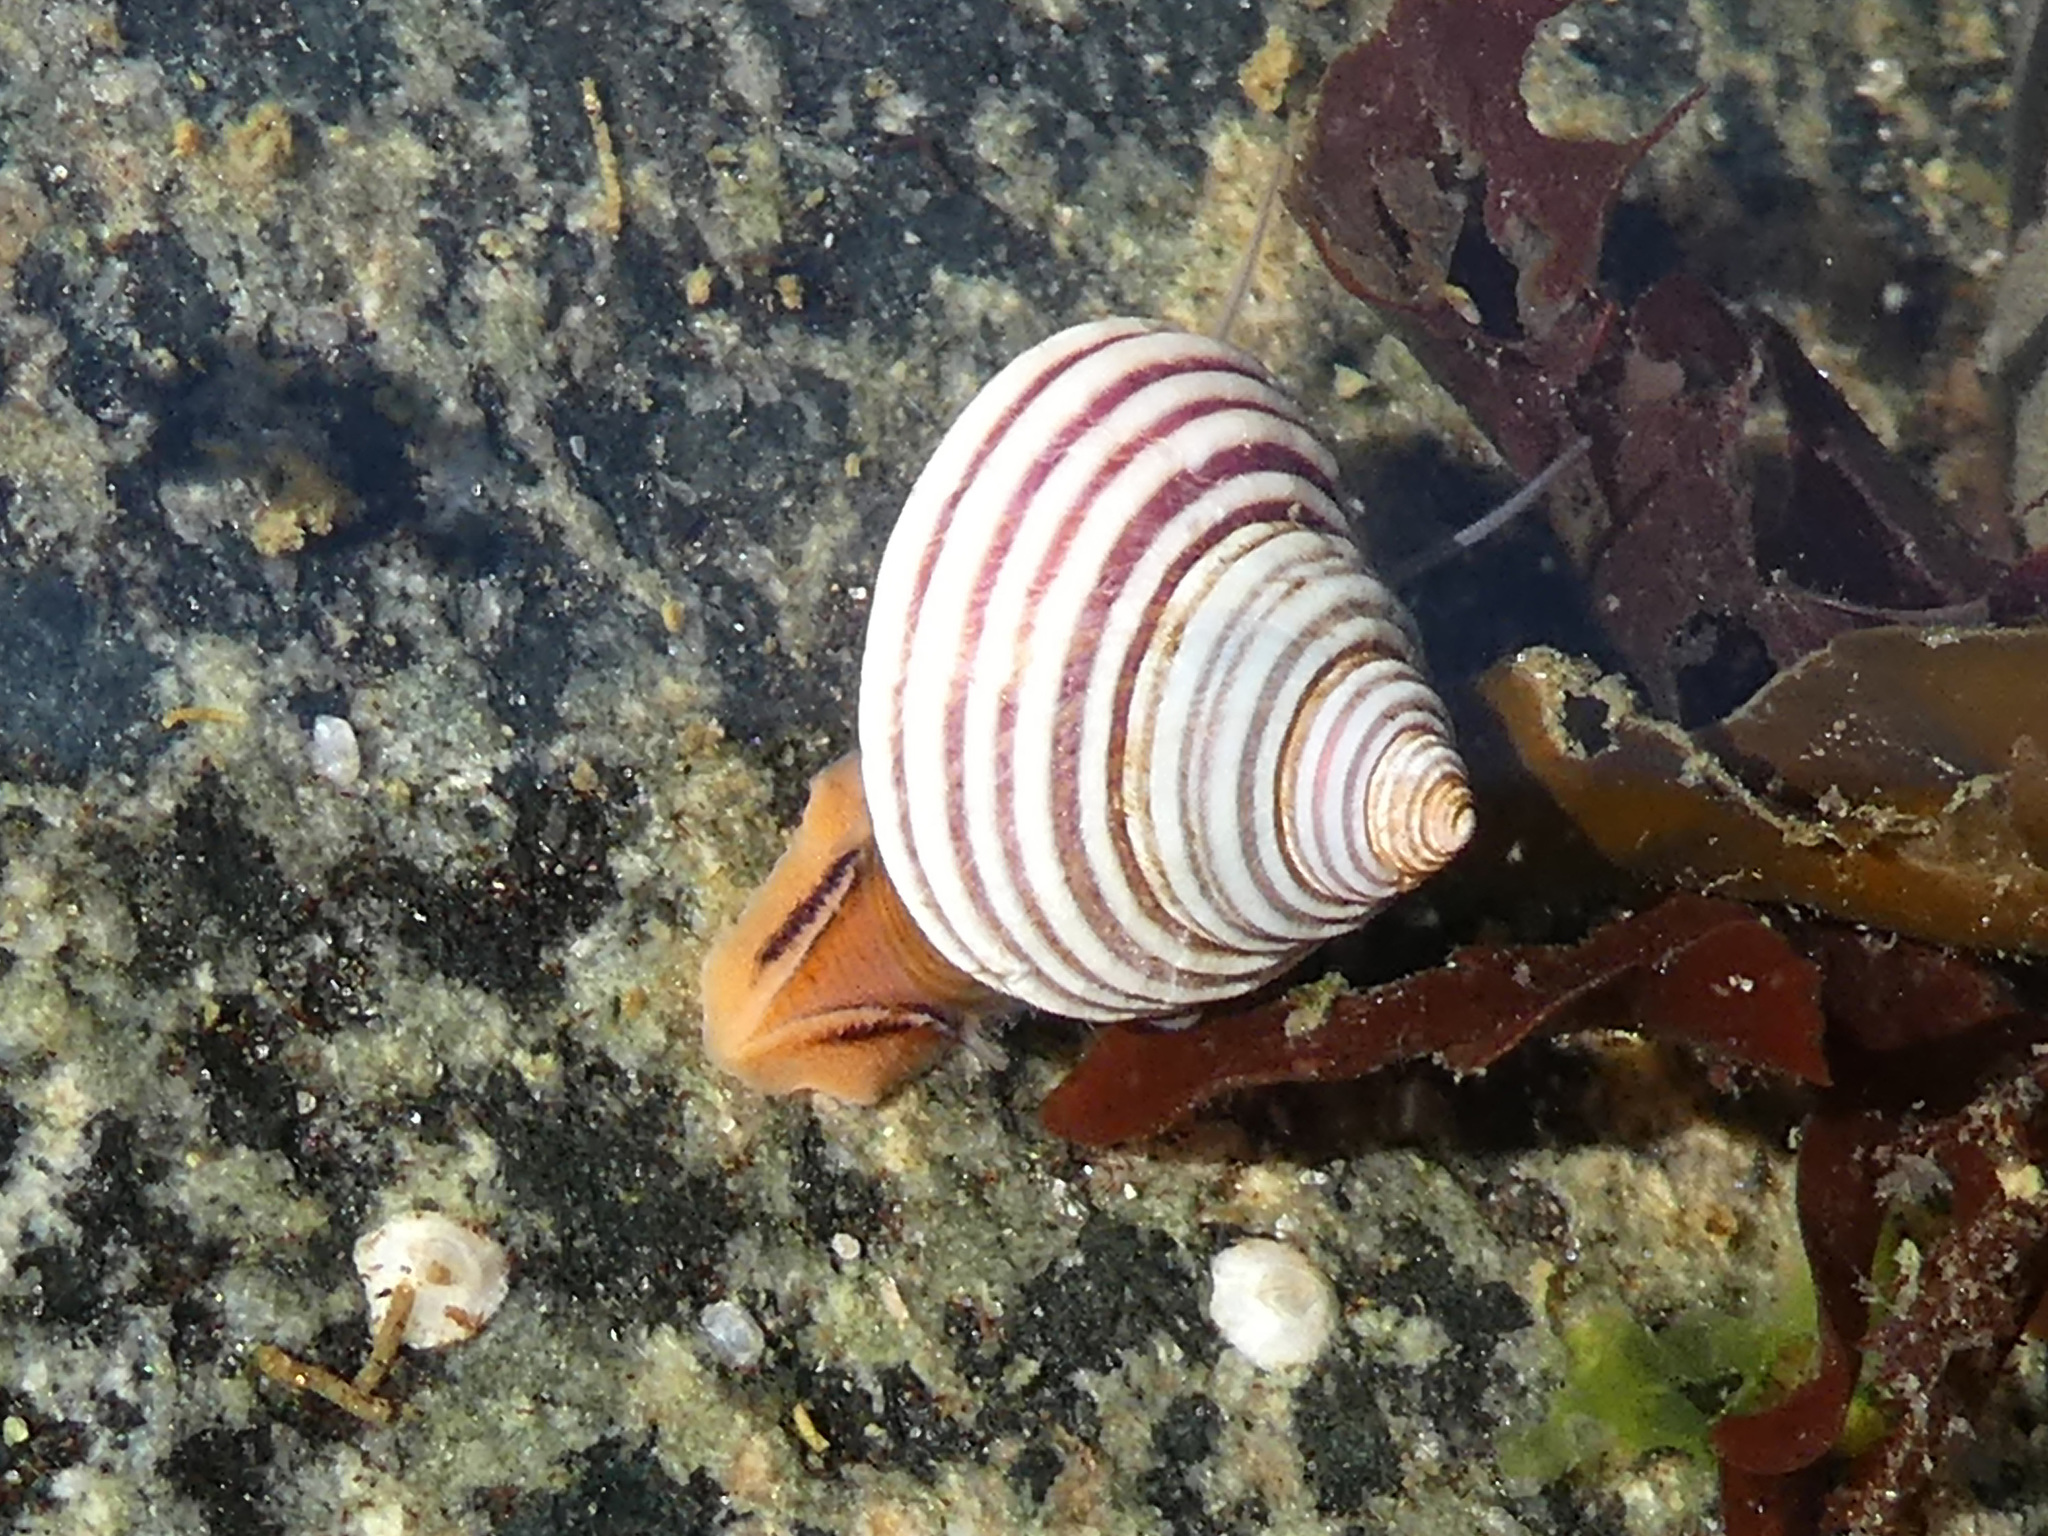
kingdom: Animalia
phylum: Mollusca
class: Gastropoda
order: Trochida
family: Calliostomatidae
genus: Calliostoma
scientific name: Calliostoma ligatum
